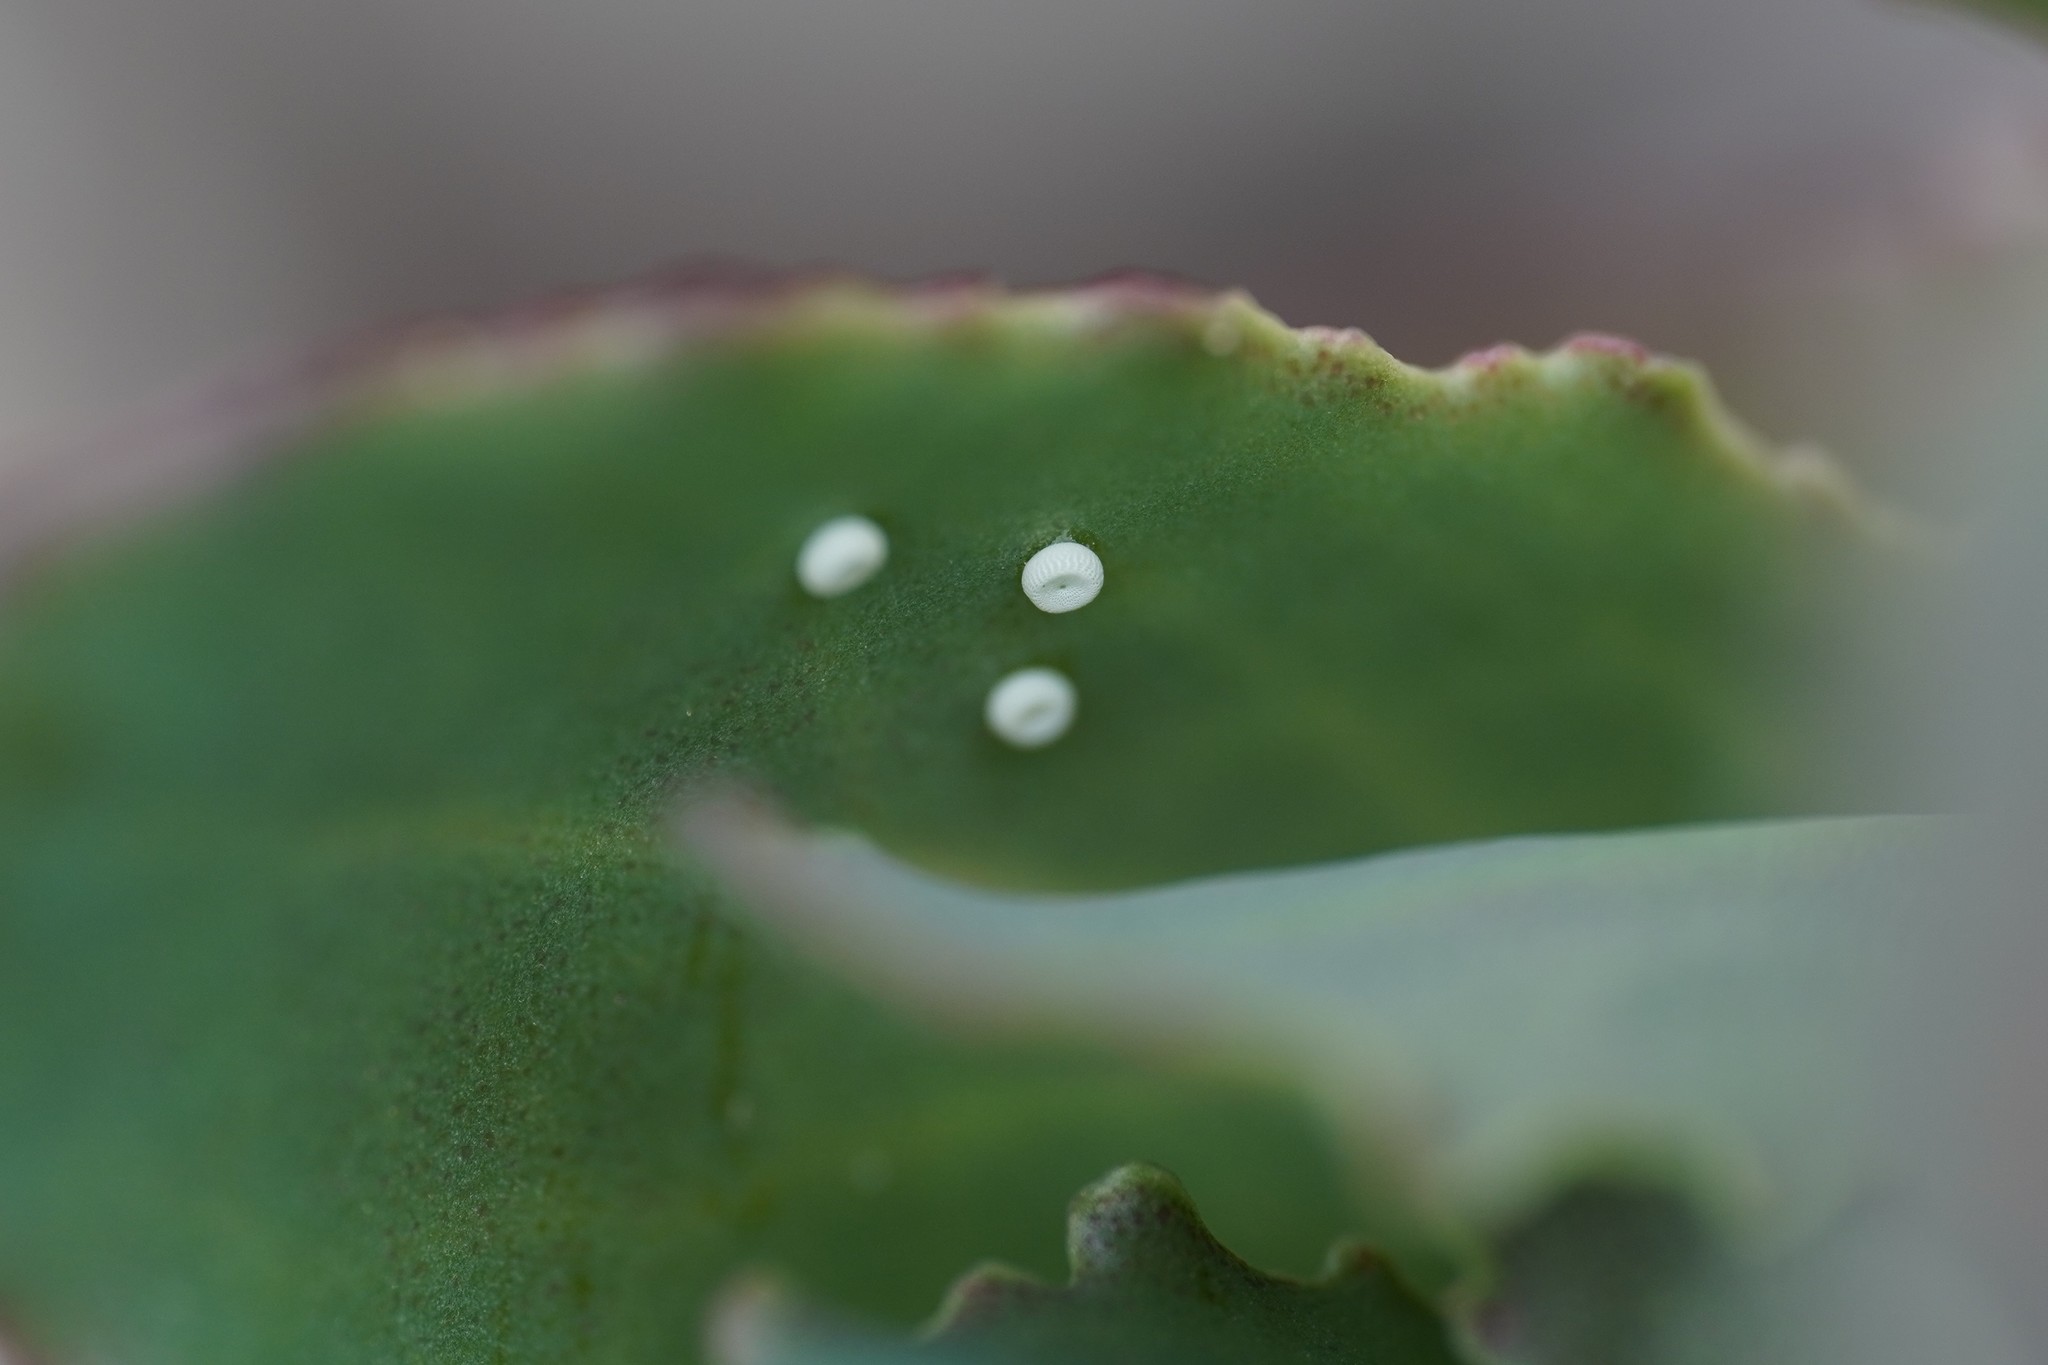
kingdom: Animalia
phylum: Arthropoda
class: Insecta
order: Lepidoptera
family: Lycaenidae
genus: Scolitantides
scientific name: Scolitantides orion
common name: Chequered blue
